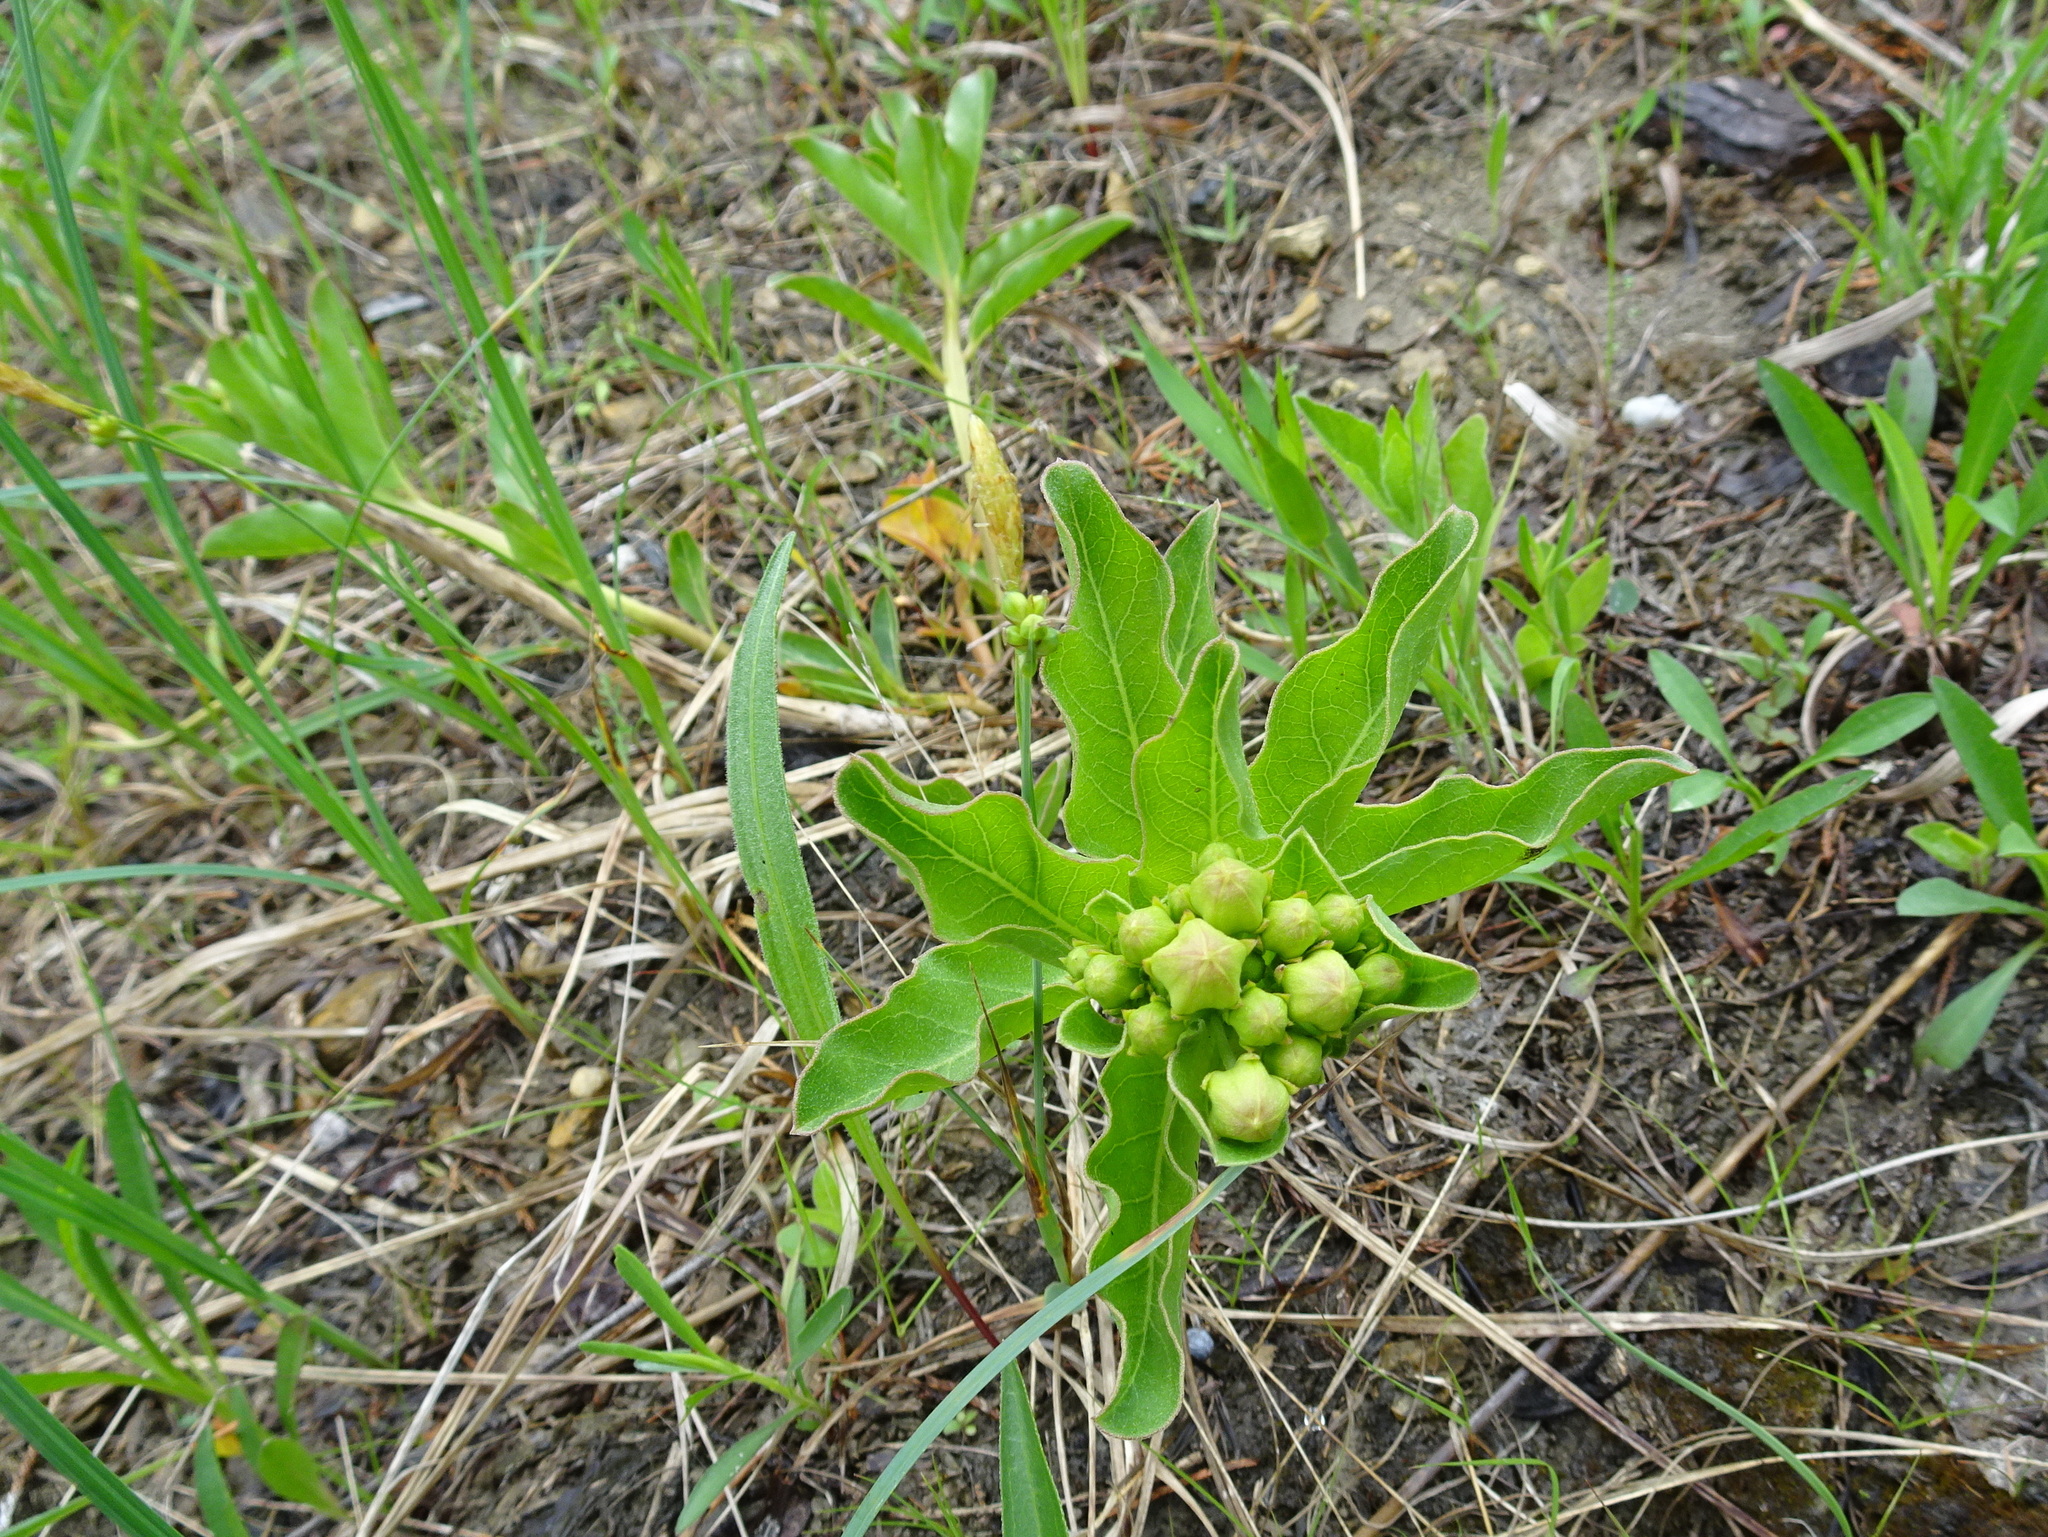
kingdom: Plantae
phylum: Tracheophyta
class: Magnoliopsida
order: Gentianales
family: Apocynaceae
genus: Asclepias
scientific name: Asclepias viridis
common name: Antelope-horns
